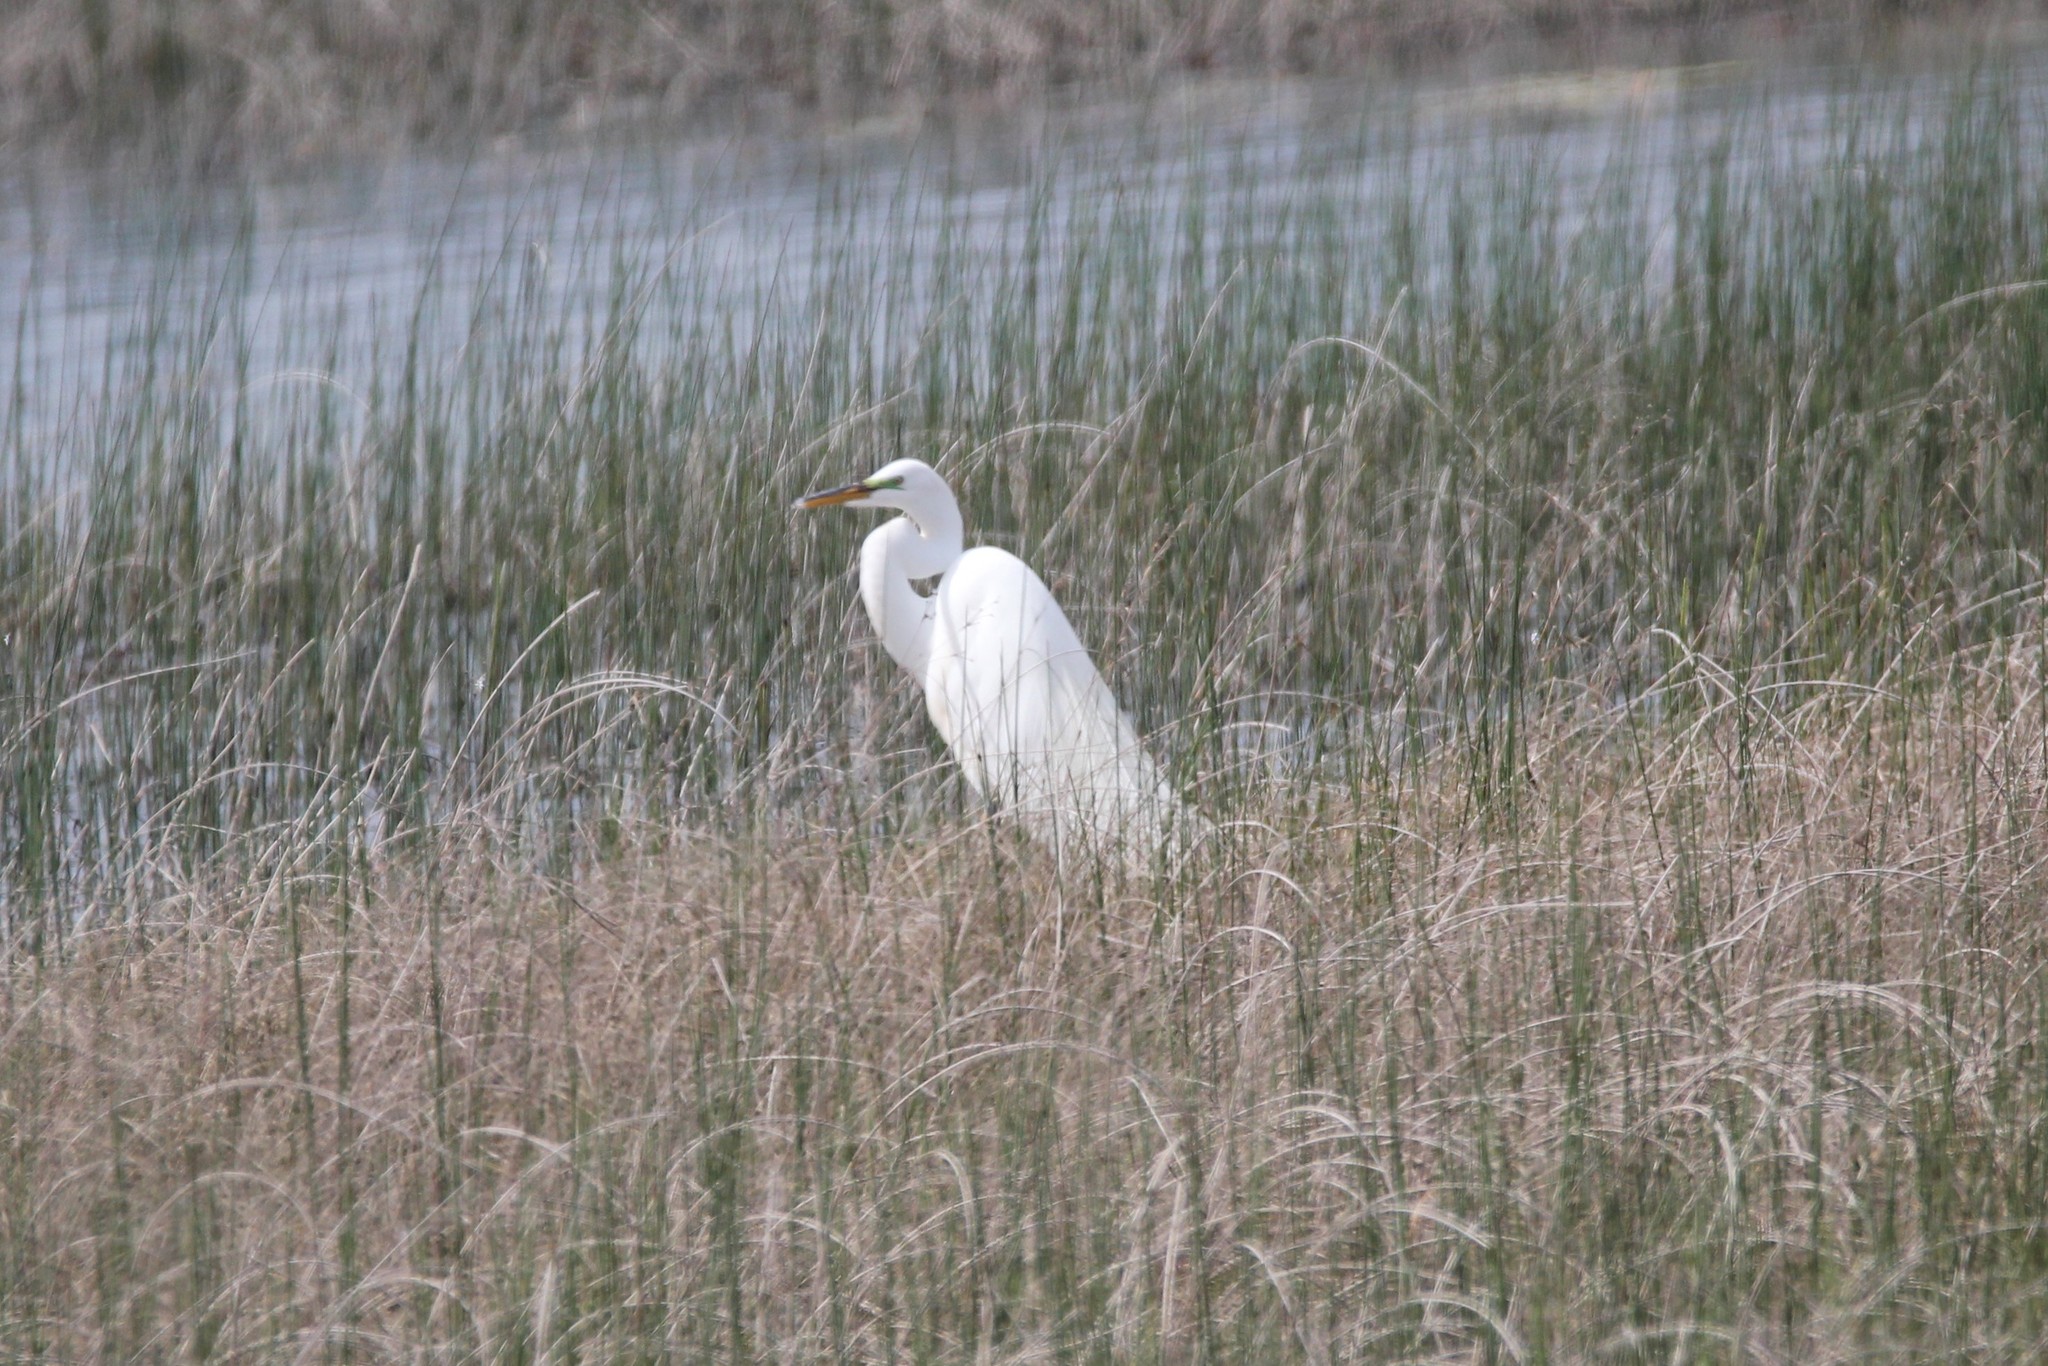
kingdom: Animalia
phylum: Chordata
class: Aves
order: Pelecaniformes
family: Ardeidae
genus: Ardea
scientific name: Ardea alba
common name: Great egret
